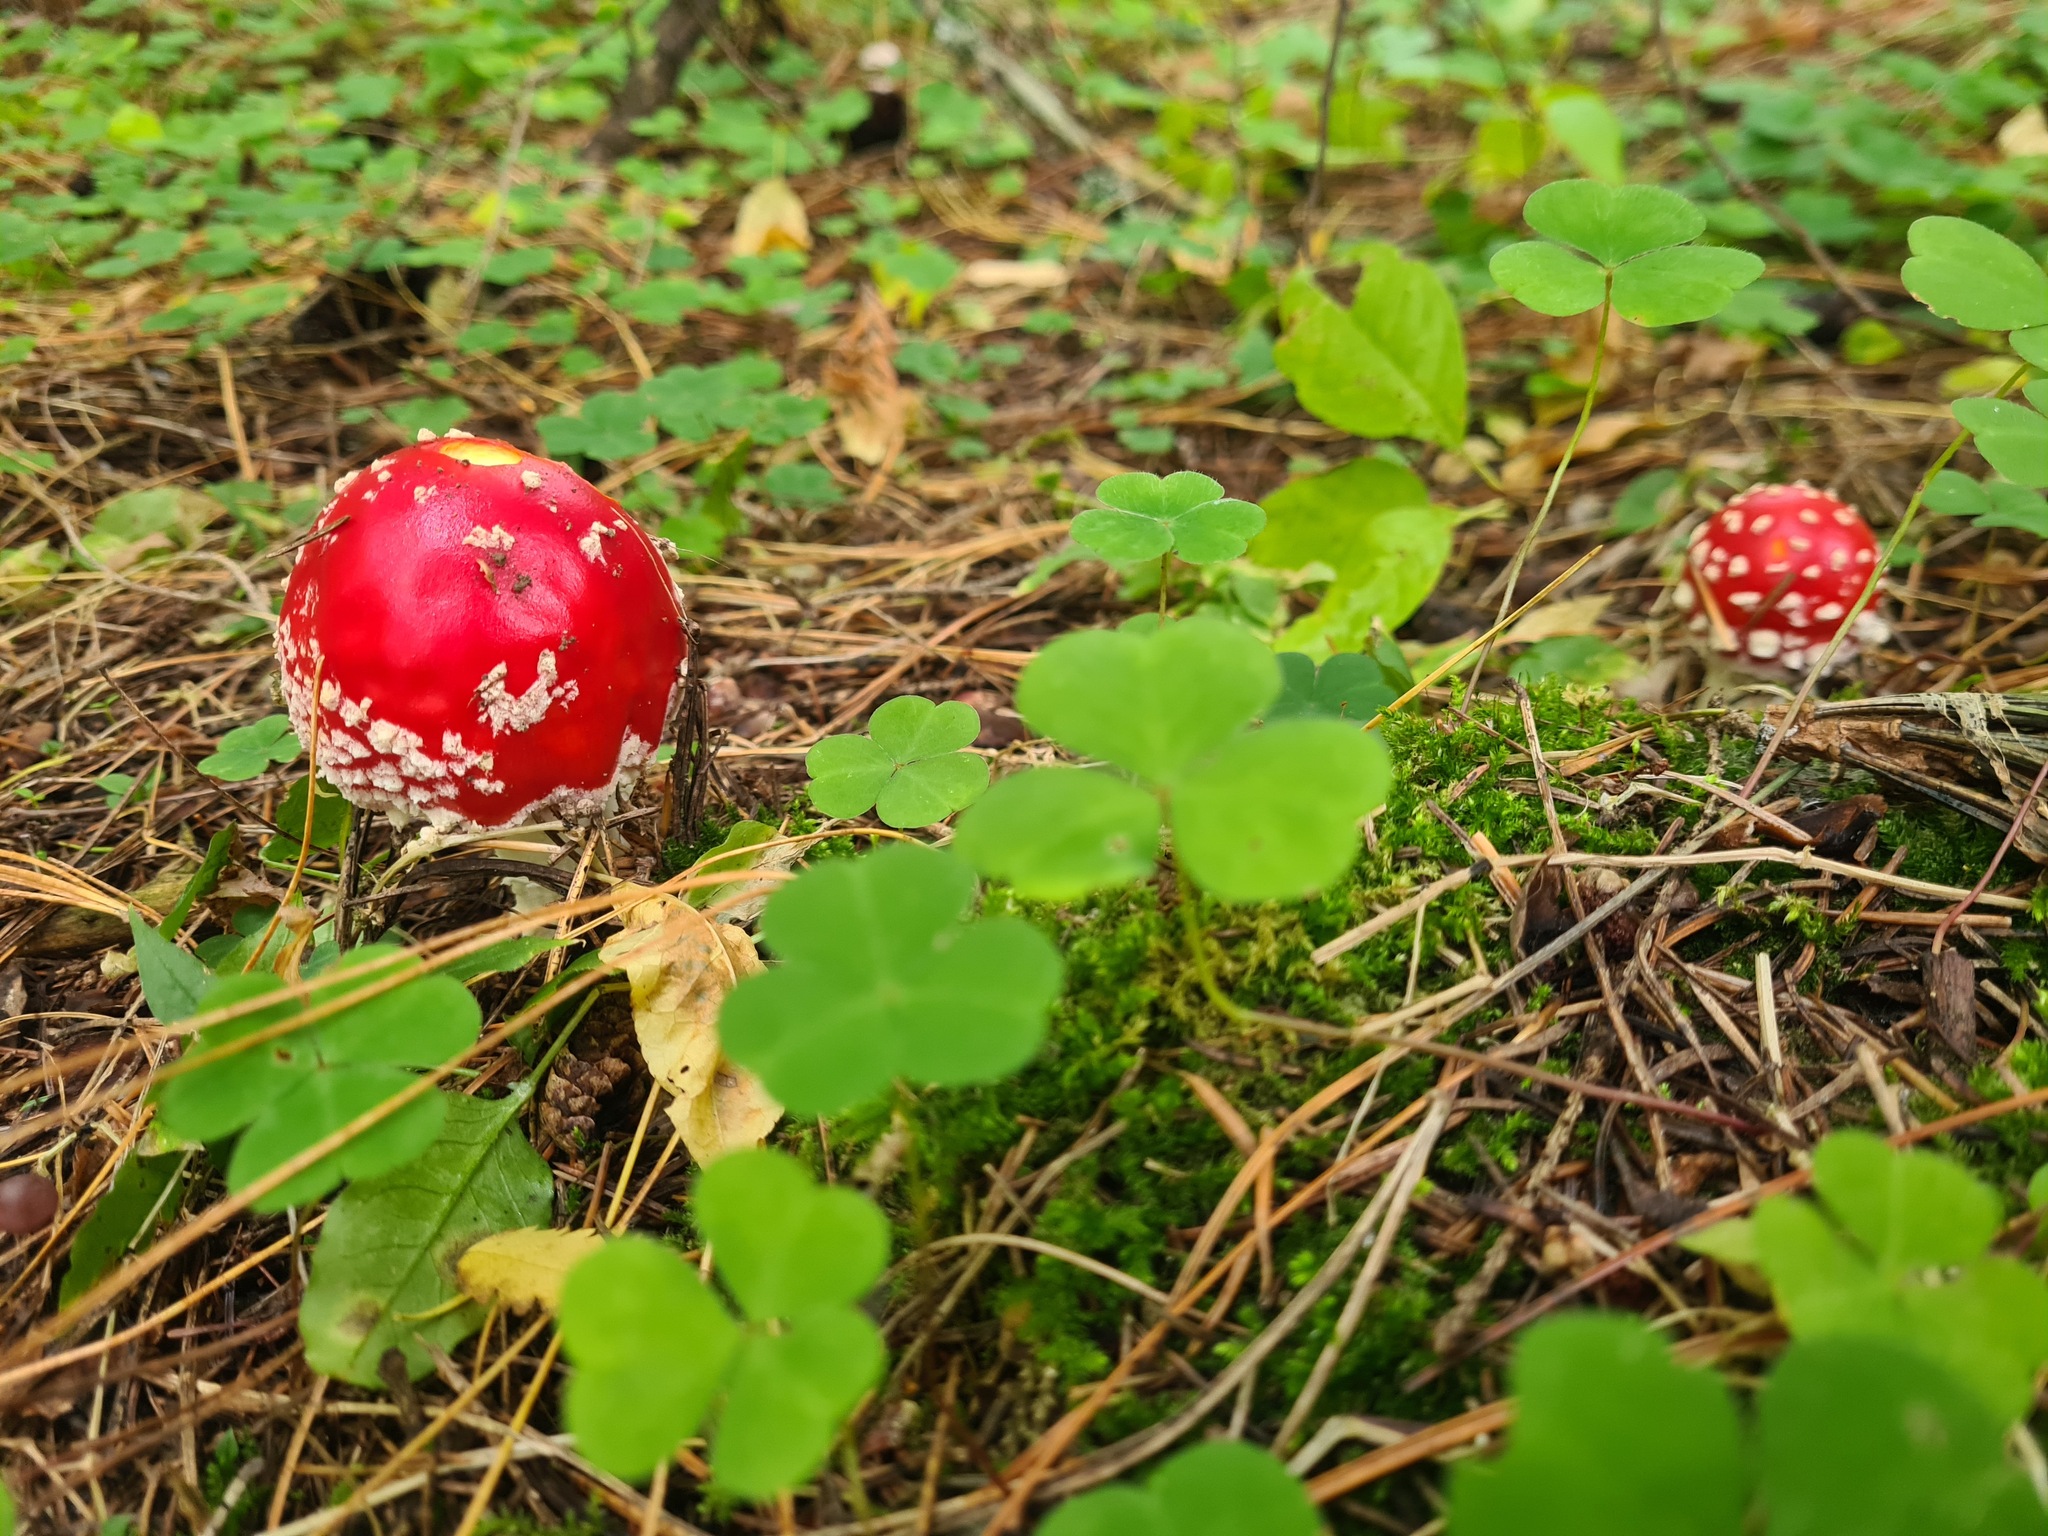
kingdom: Fungi
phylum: Basidiomycota
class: Agaricomycetes
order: Agaricales
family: Amanitaceae
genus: Amanita
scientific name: Amanita muscaria
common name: Fly agaric
